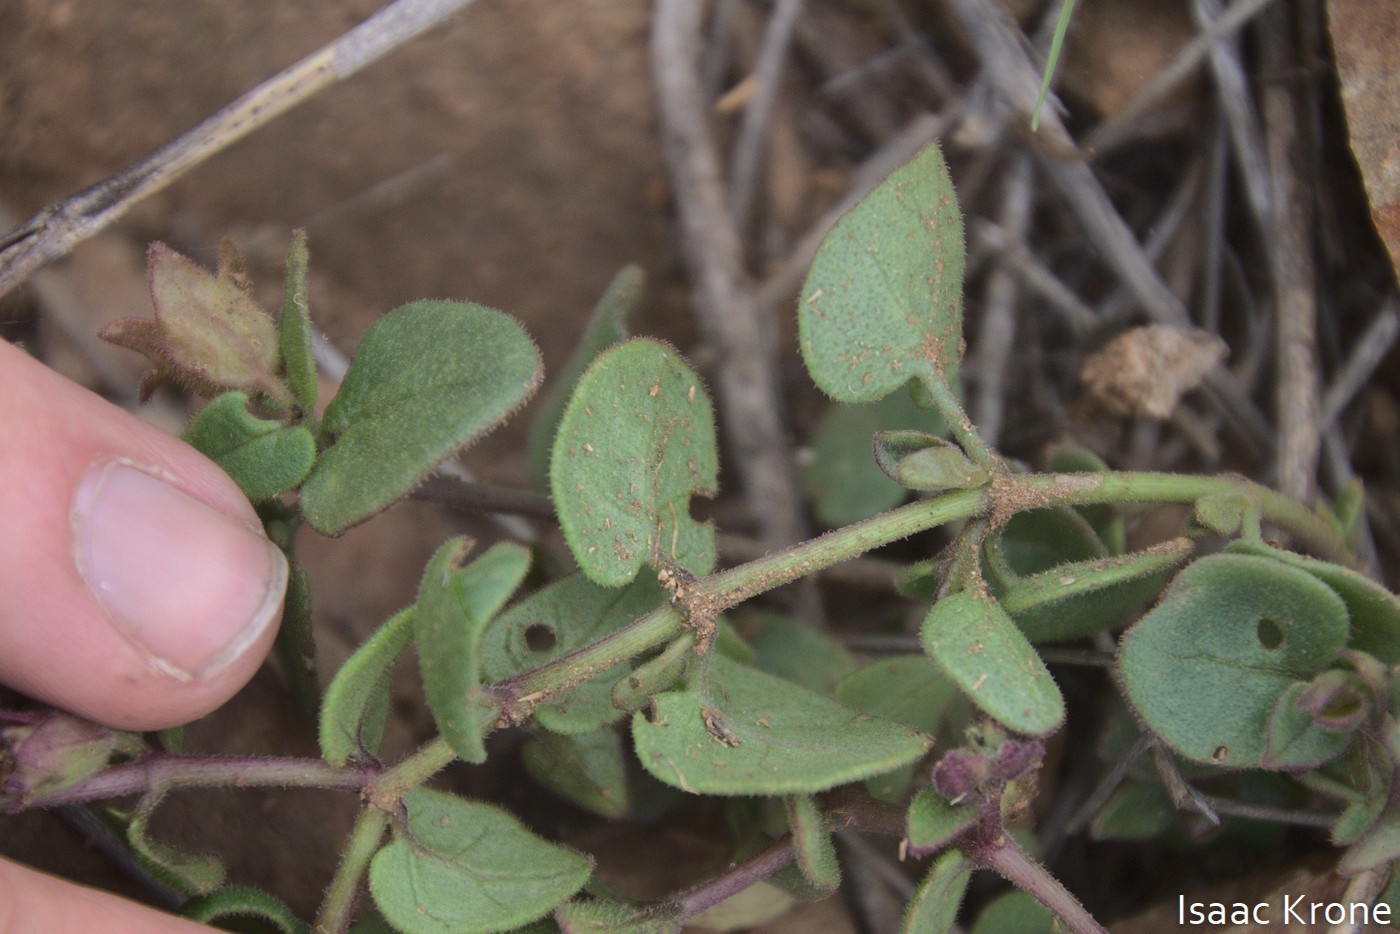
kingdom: Plantae
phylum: Tracheophyta
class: Magnoliopsida
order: Caryophyllales
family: Nyctaginaceae
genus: Mirabilis
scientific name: Mirabilis laevis
